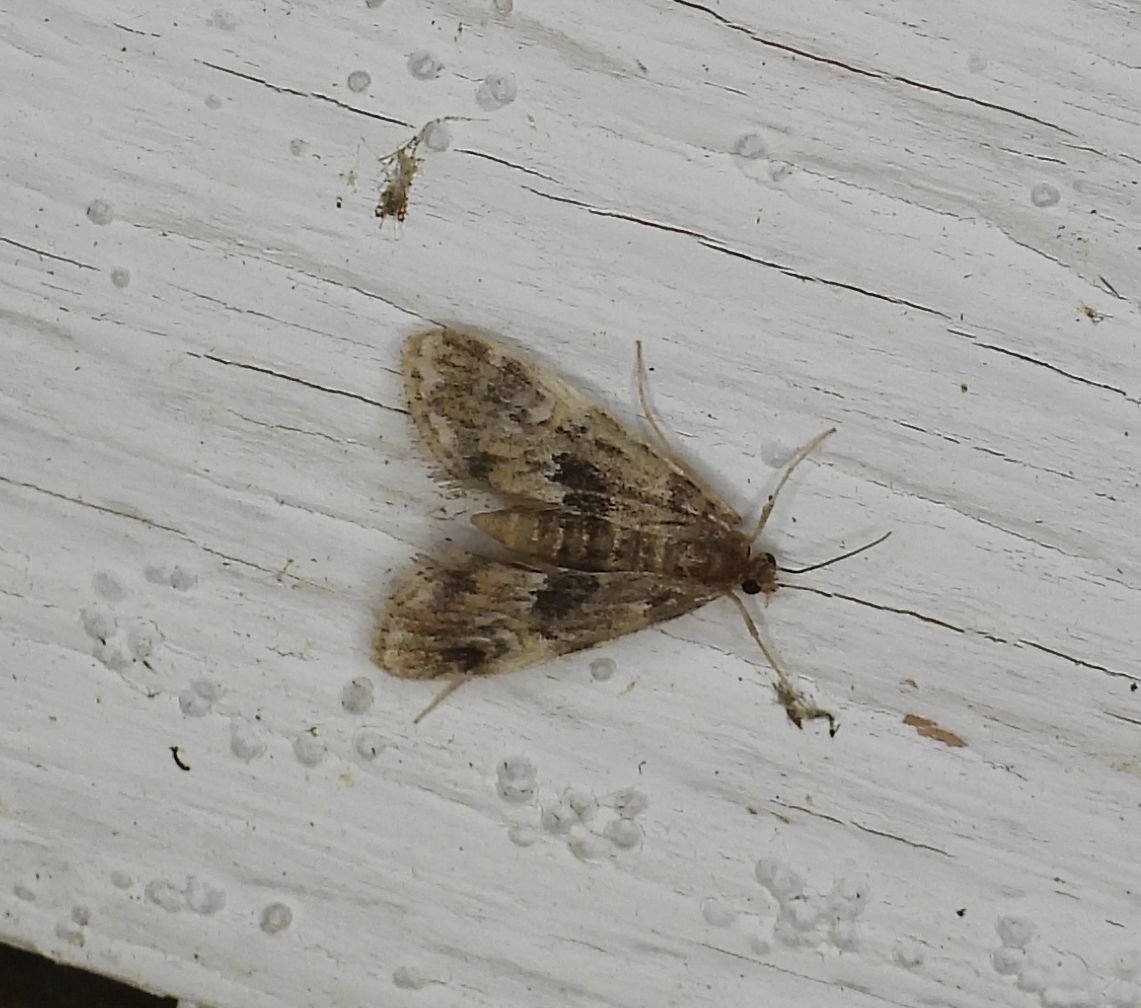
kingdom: Animalia
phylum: Arthropoda
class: Insecta
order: Lepidoptera
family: Crambidae
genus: Elophila
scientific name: Elophila obliteralis
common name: Waterlily leafcutter moth
